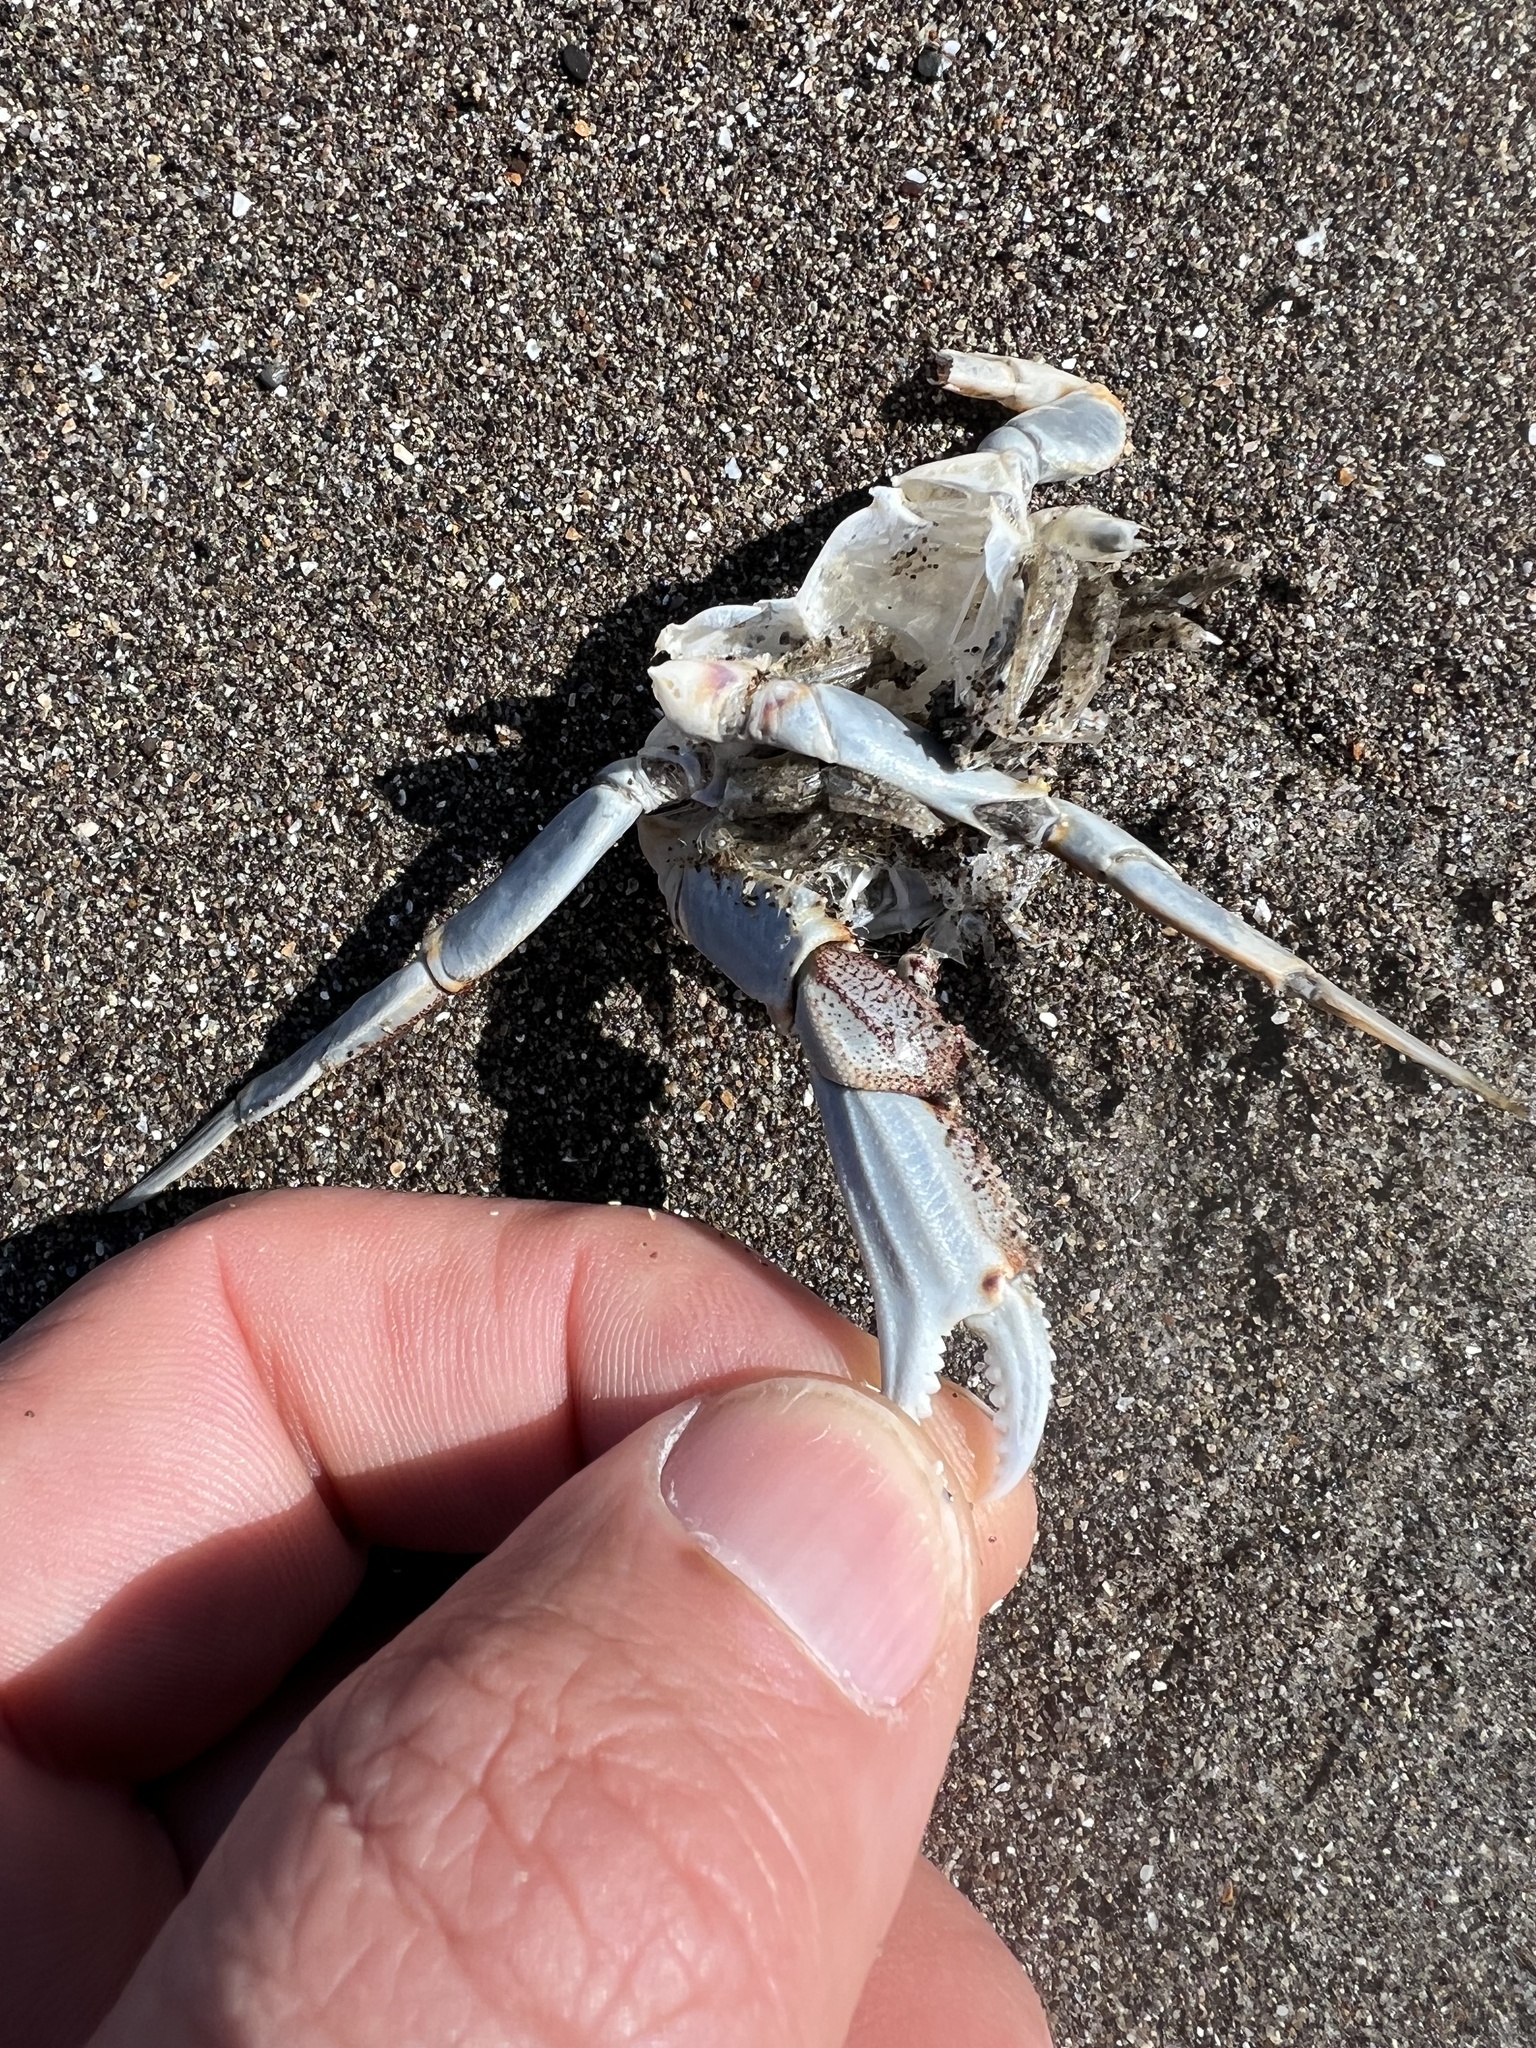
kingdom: Animalia
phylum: Arthropoda
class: Malacostraca
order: Decapoda
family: Cancridae
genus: Metacarcinus
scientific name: Metacarcinus magister
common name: Californian crab
